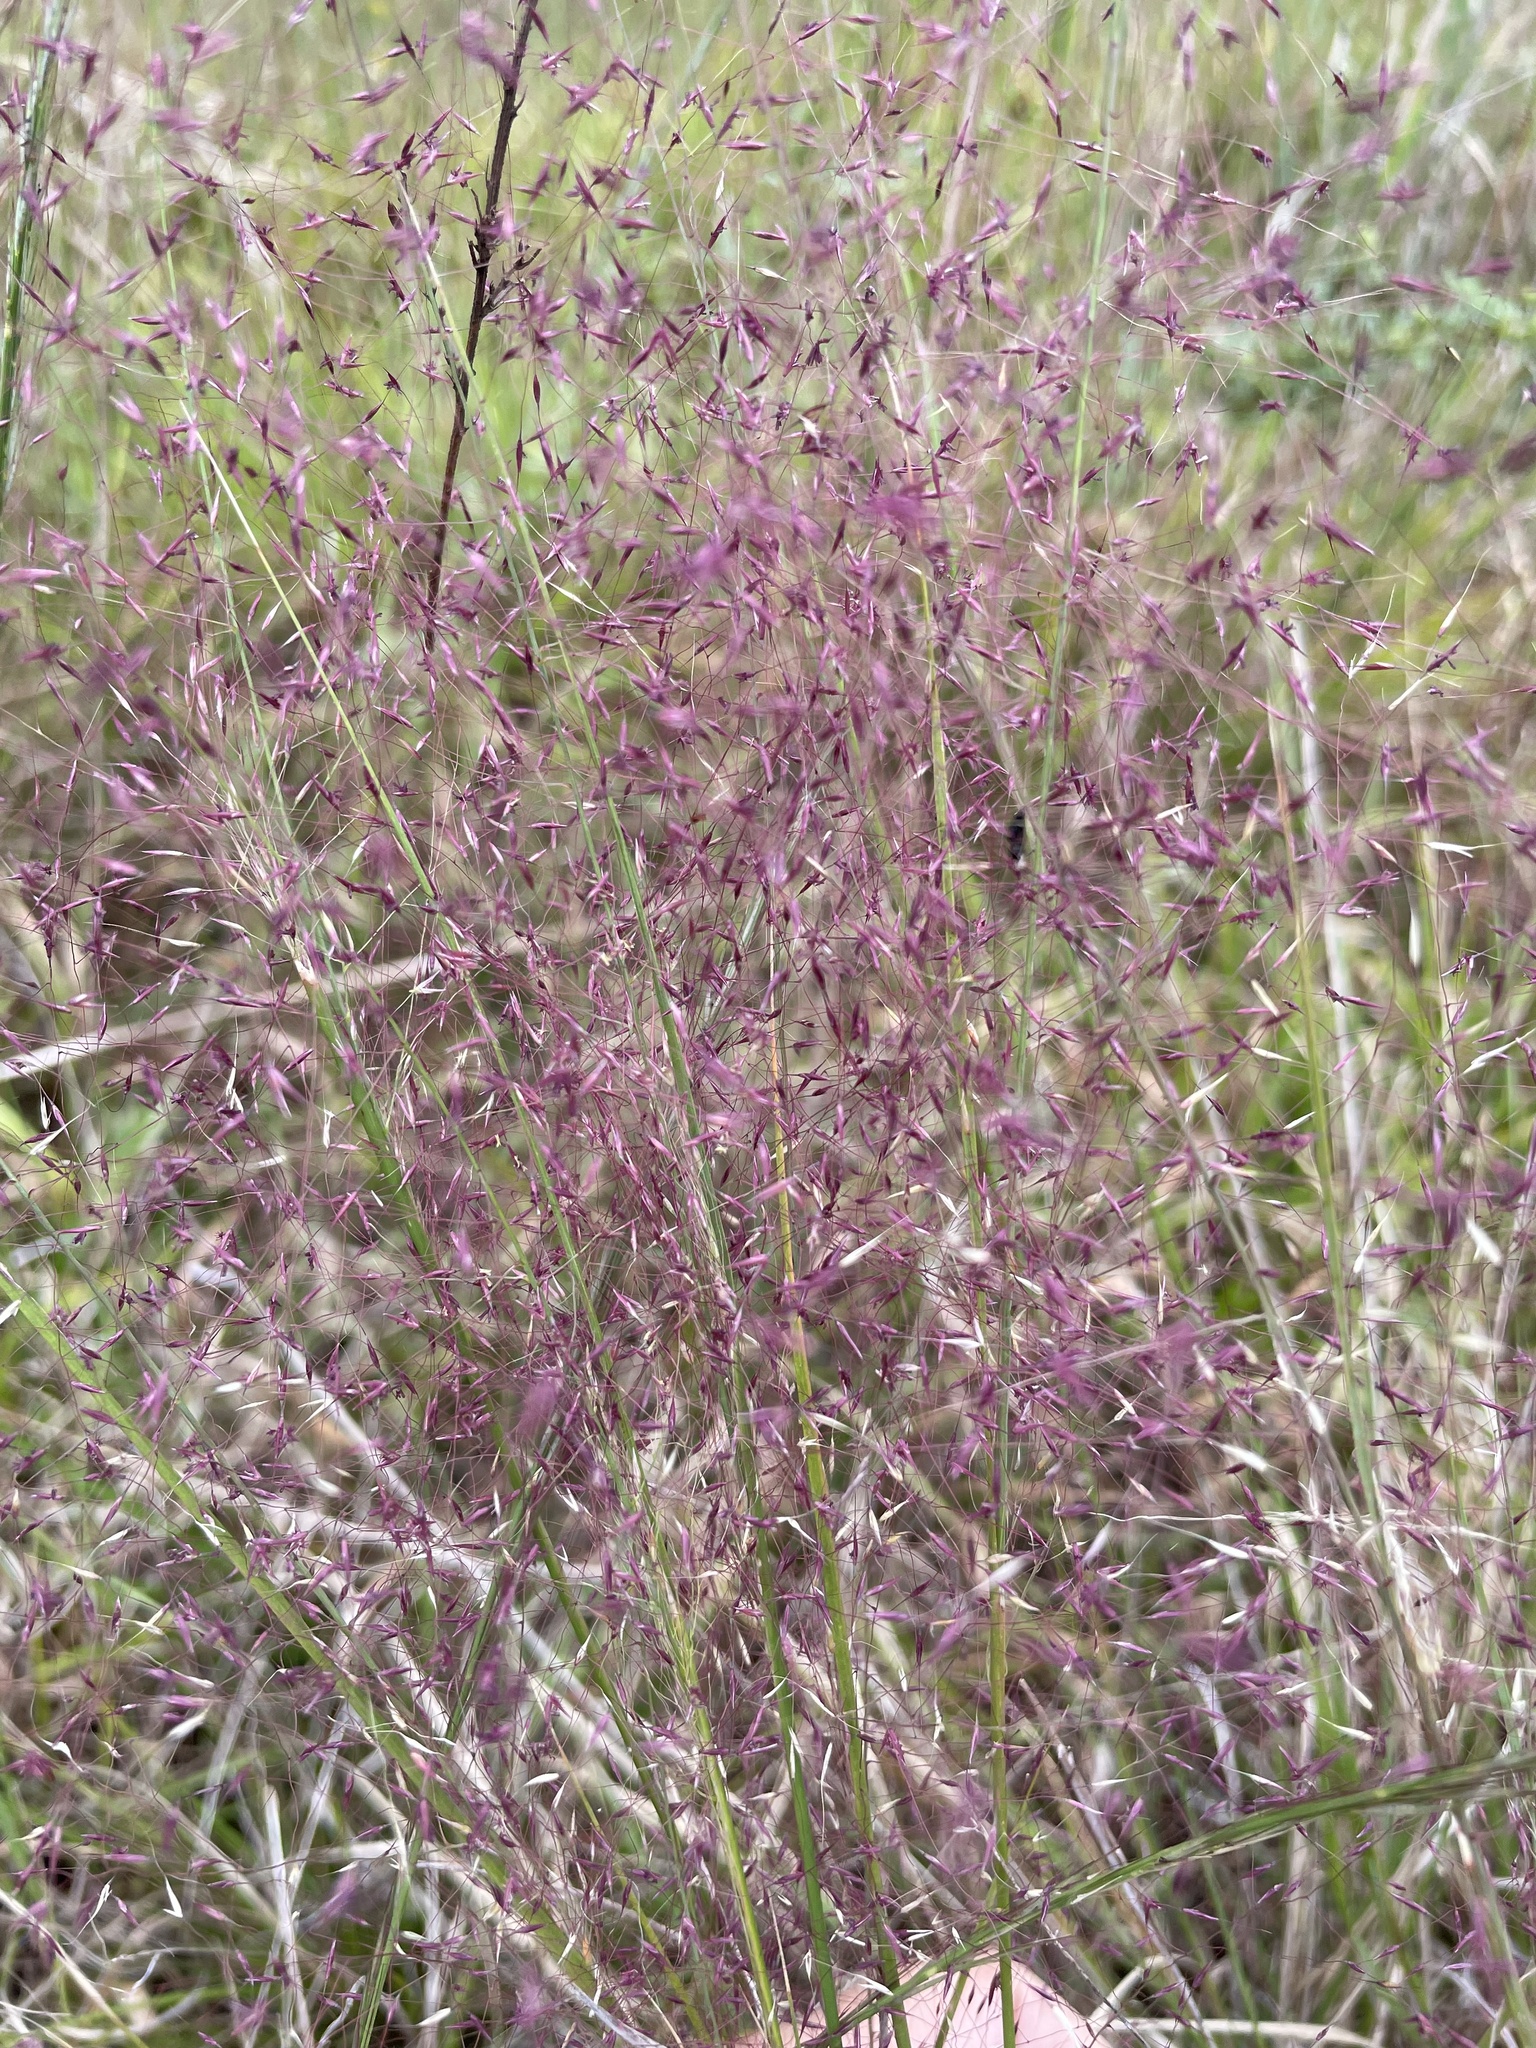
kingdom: Plantae
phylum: Tracheophyta
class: Liliopsida
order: Poales
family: Poaceae
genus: Muhlenbergia
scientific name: Muhlenbergia capillaris
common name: Purple grass
